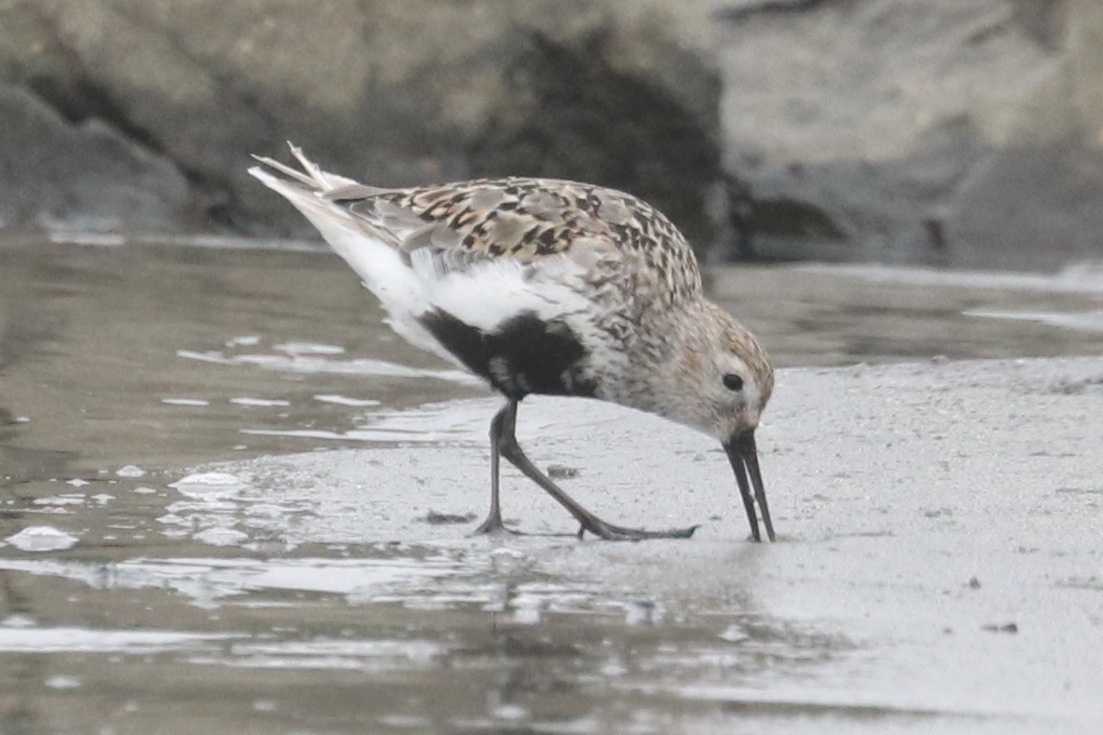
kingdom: Animalia
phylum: Chordata
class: Aves
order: Charadriiformes
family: Scolopacidae
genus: Calidris
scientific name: Calidris alpina
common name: Dunlin
